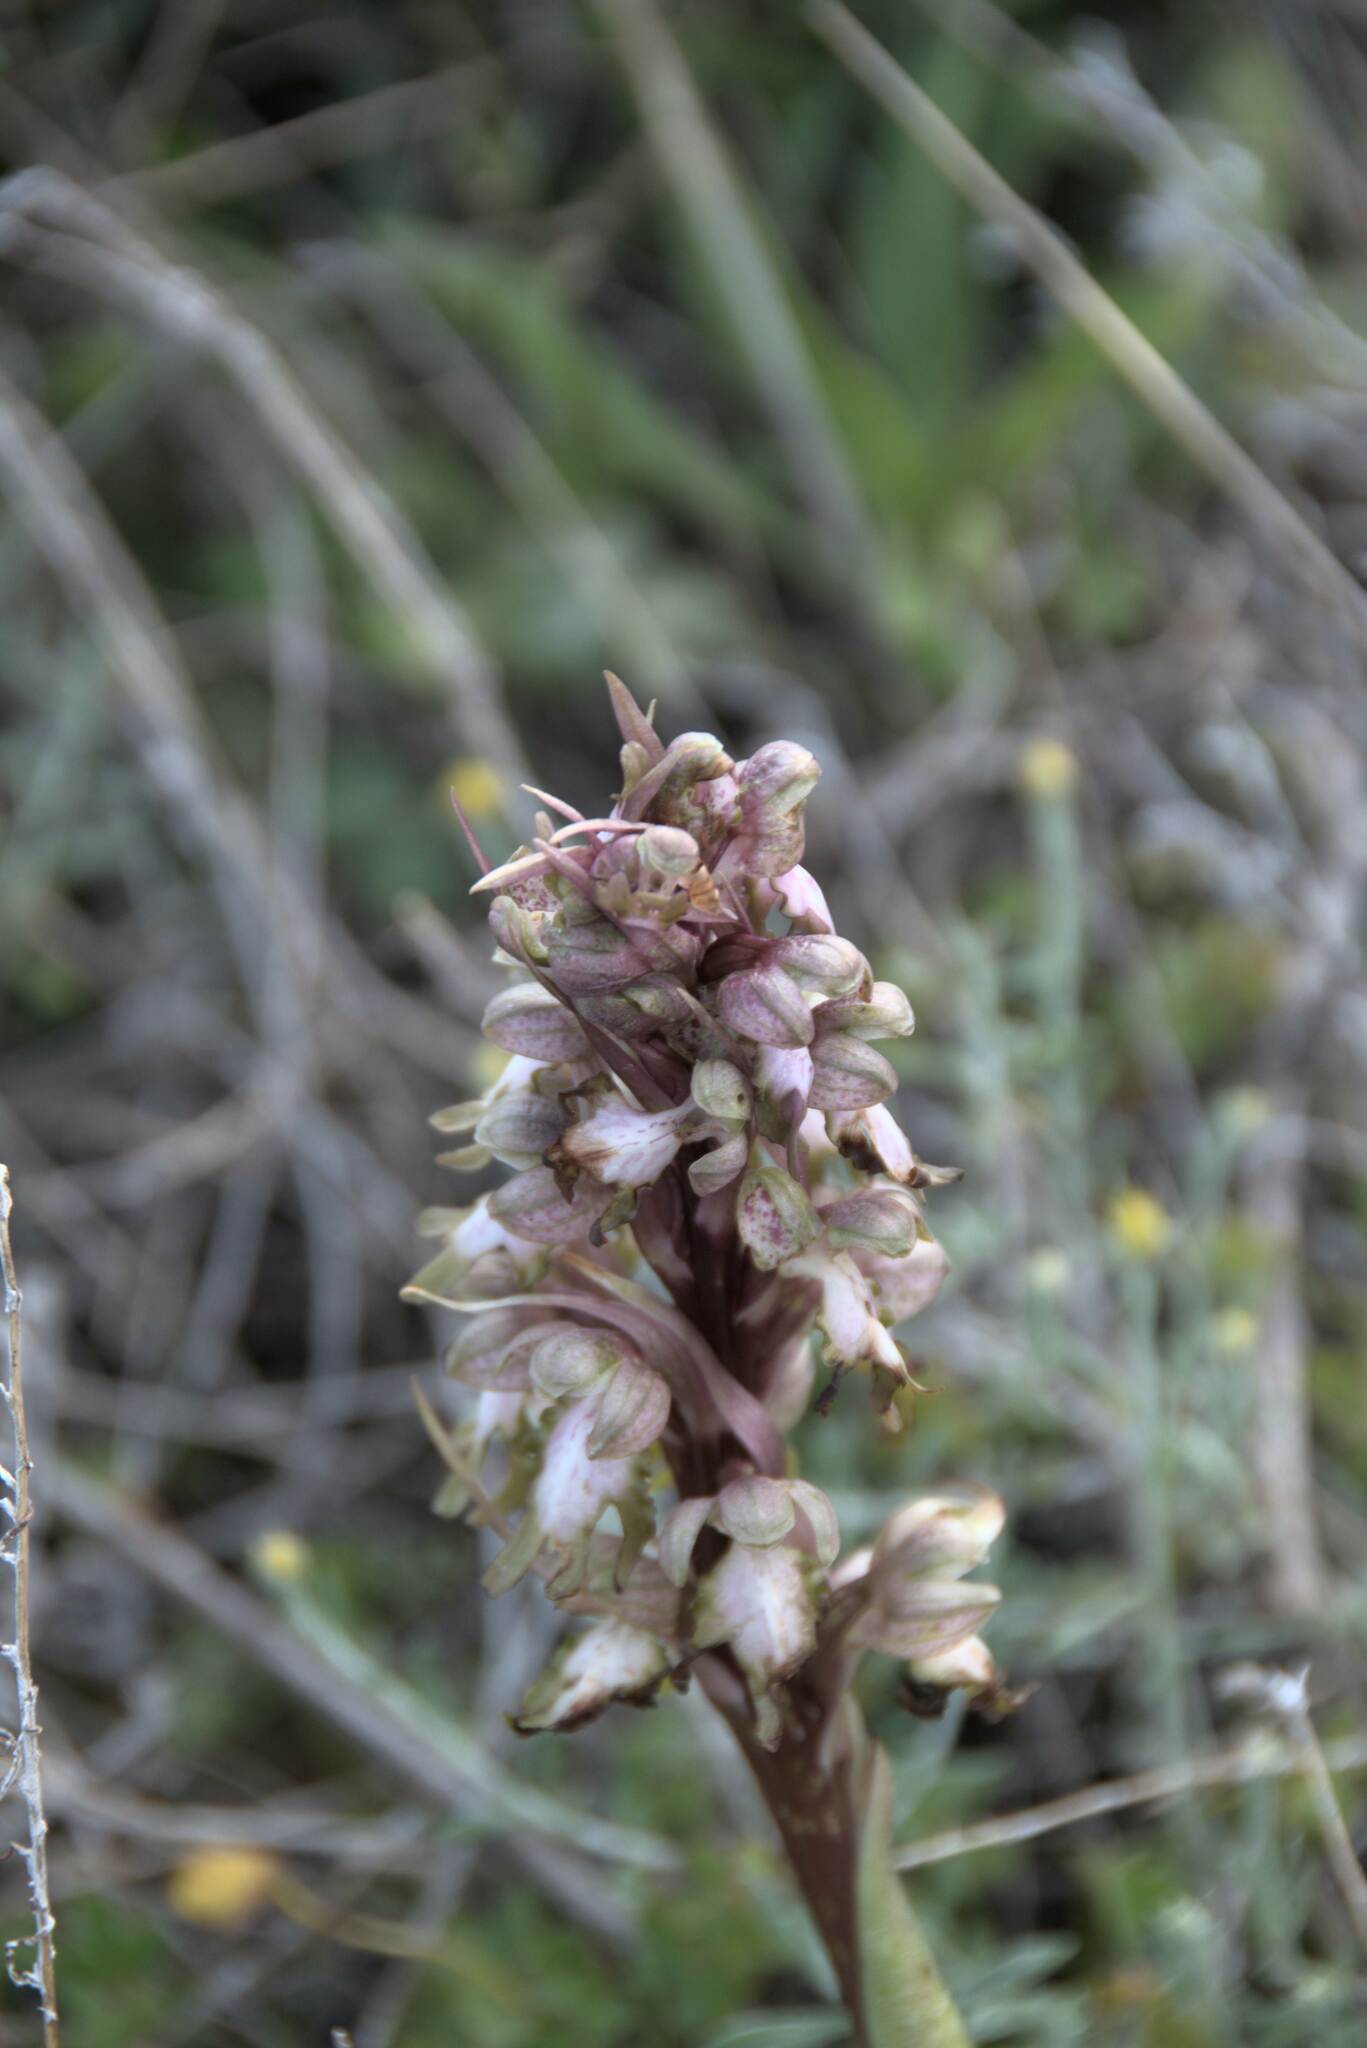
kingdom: Plantae
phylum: Tracheophyta
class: Liliopsida
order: Asparagales
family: Orchidaceae
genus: Himantoglossum
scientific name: Himantoglossum robertianum
